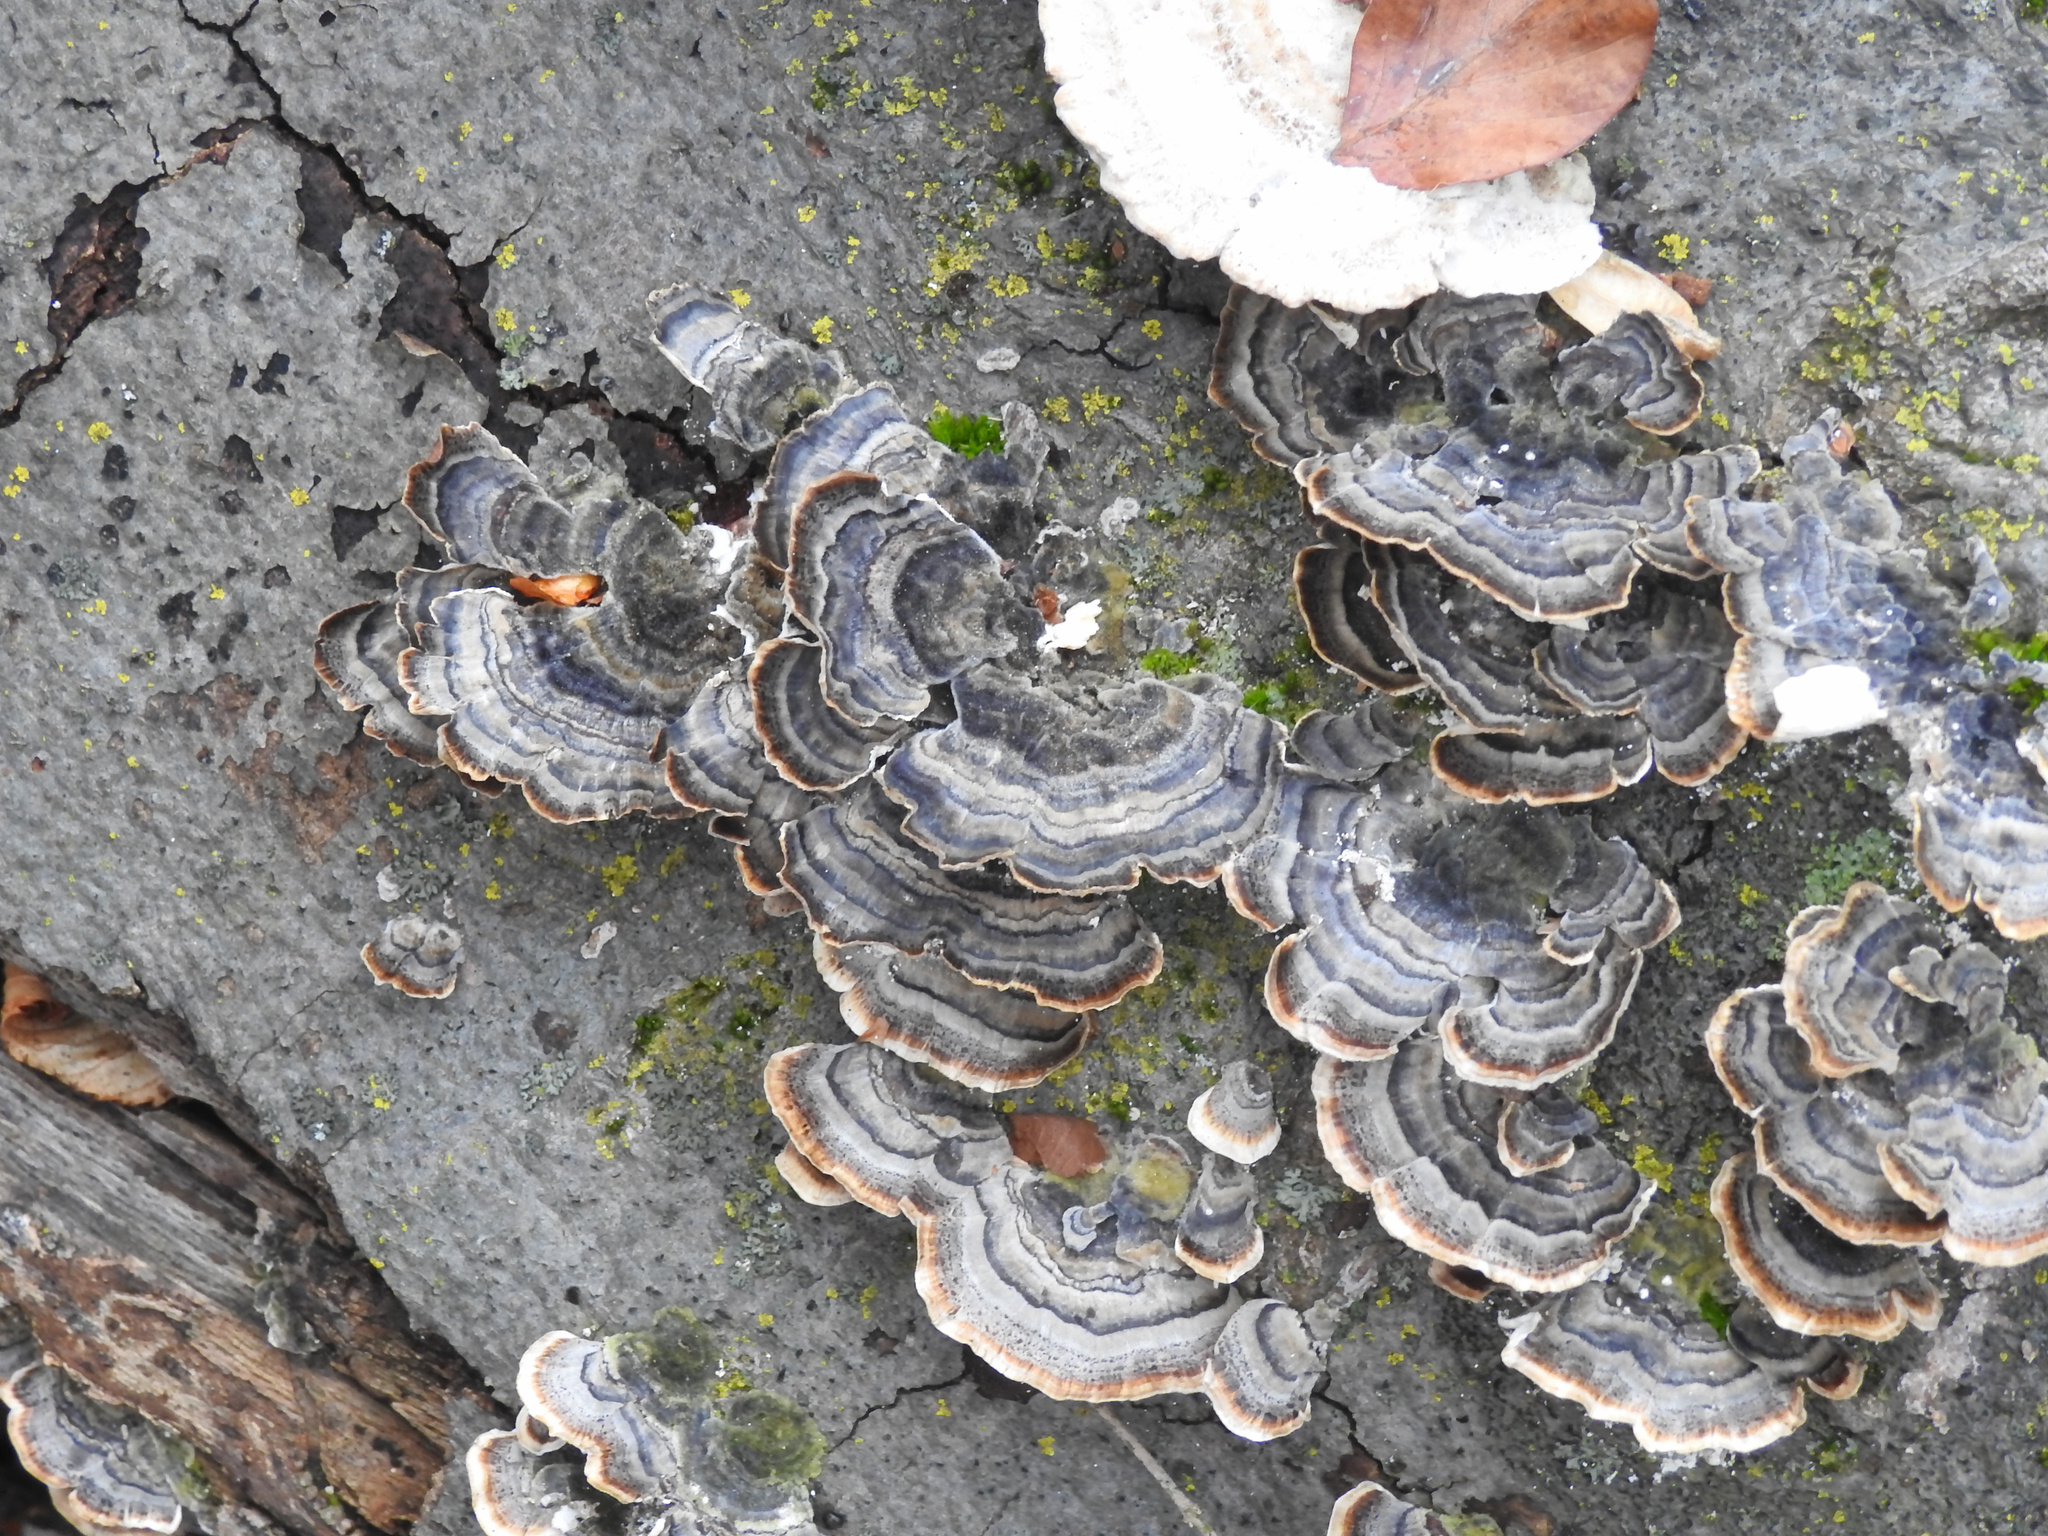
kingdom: Fungi
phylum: Basidiomycota
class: Agaricomycetes
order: Polyporales
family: Polyporaceae
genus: Trametes
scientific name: Trametes versicolor
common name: Turkeytail
